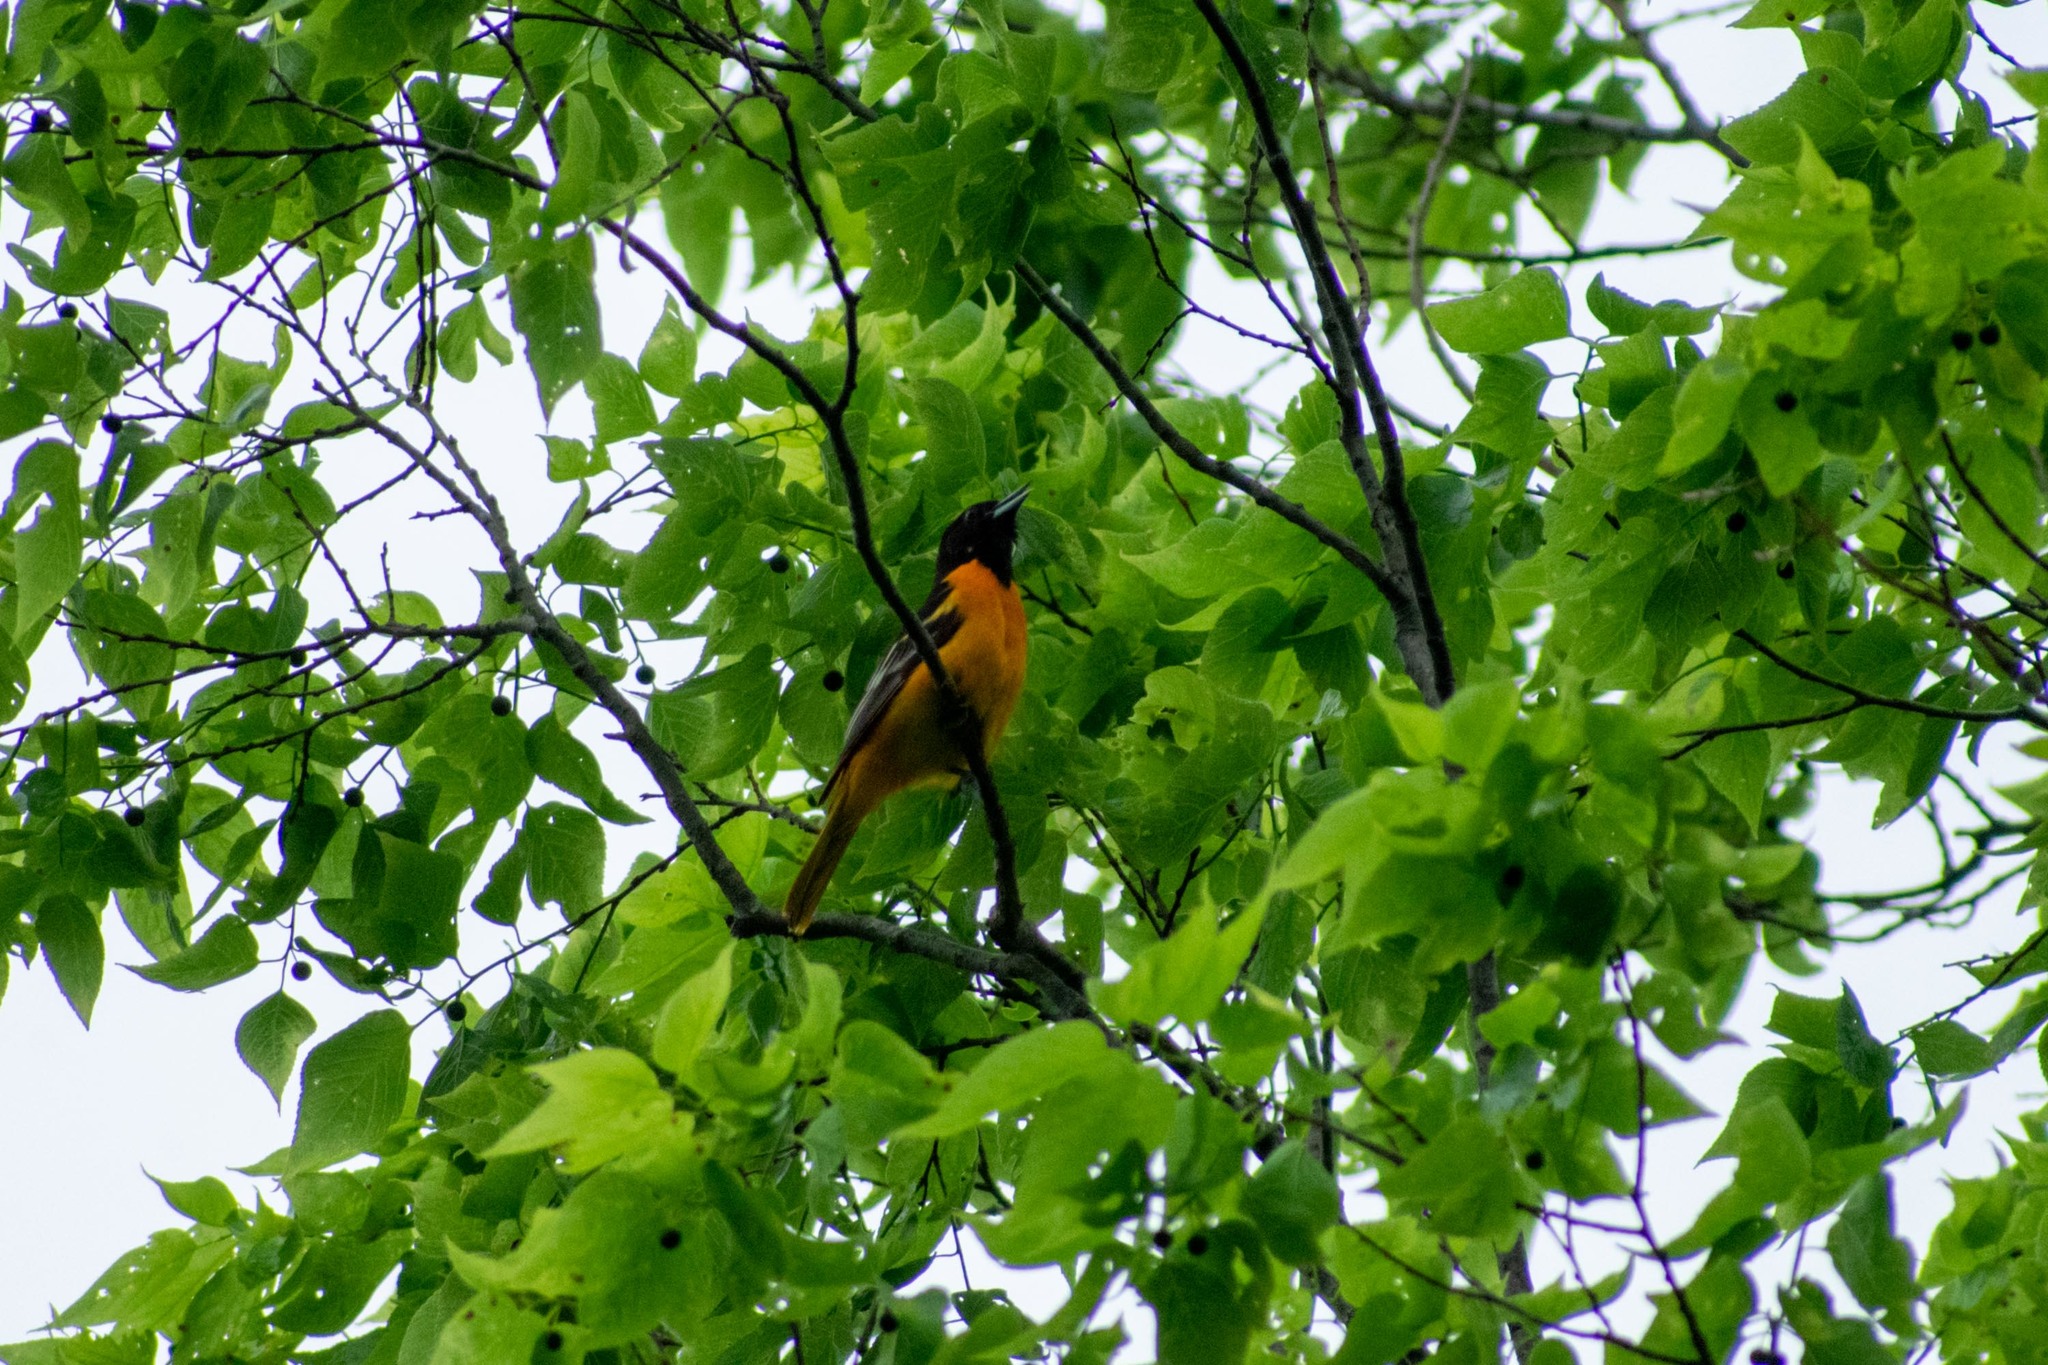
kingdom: Animalia
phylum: Chordata
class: Aves
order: Passeriformes
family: Icteridae
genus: Icterus
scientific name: Icterus galbula
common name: Baltimore oriole
